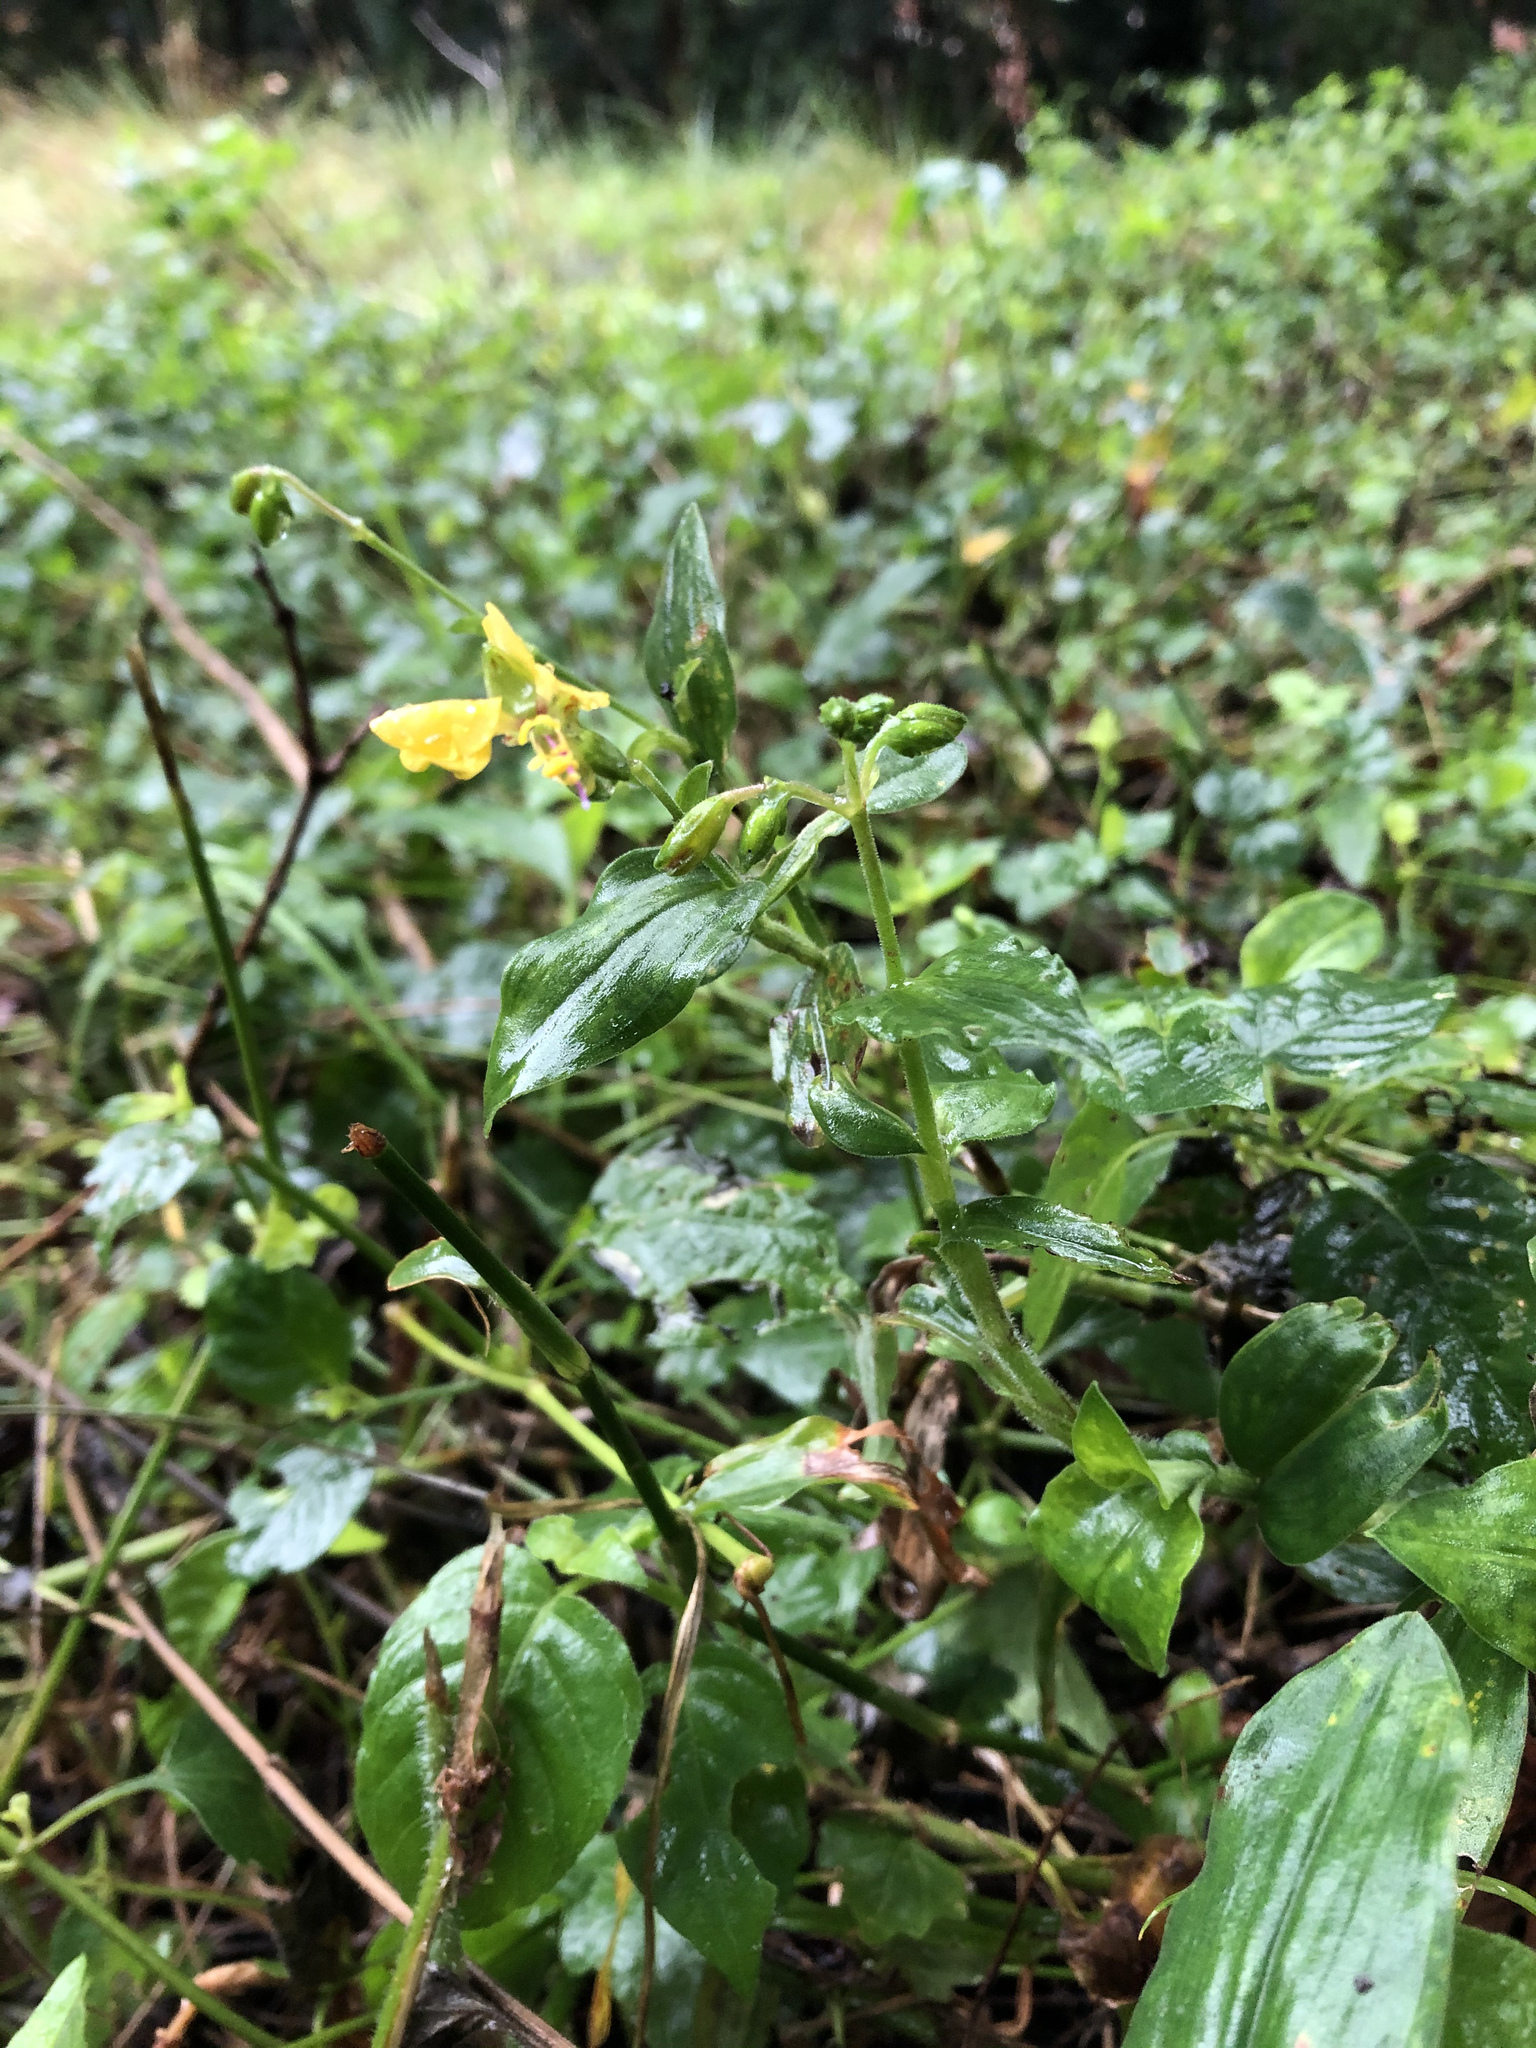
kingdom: Plantae
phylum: Tracheophyta
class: Liliopsida
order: Commelinales
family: Commelinaceae
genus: Aneilema
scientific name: Aneilema aequinoctiale
